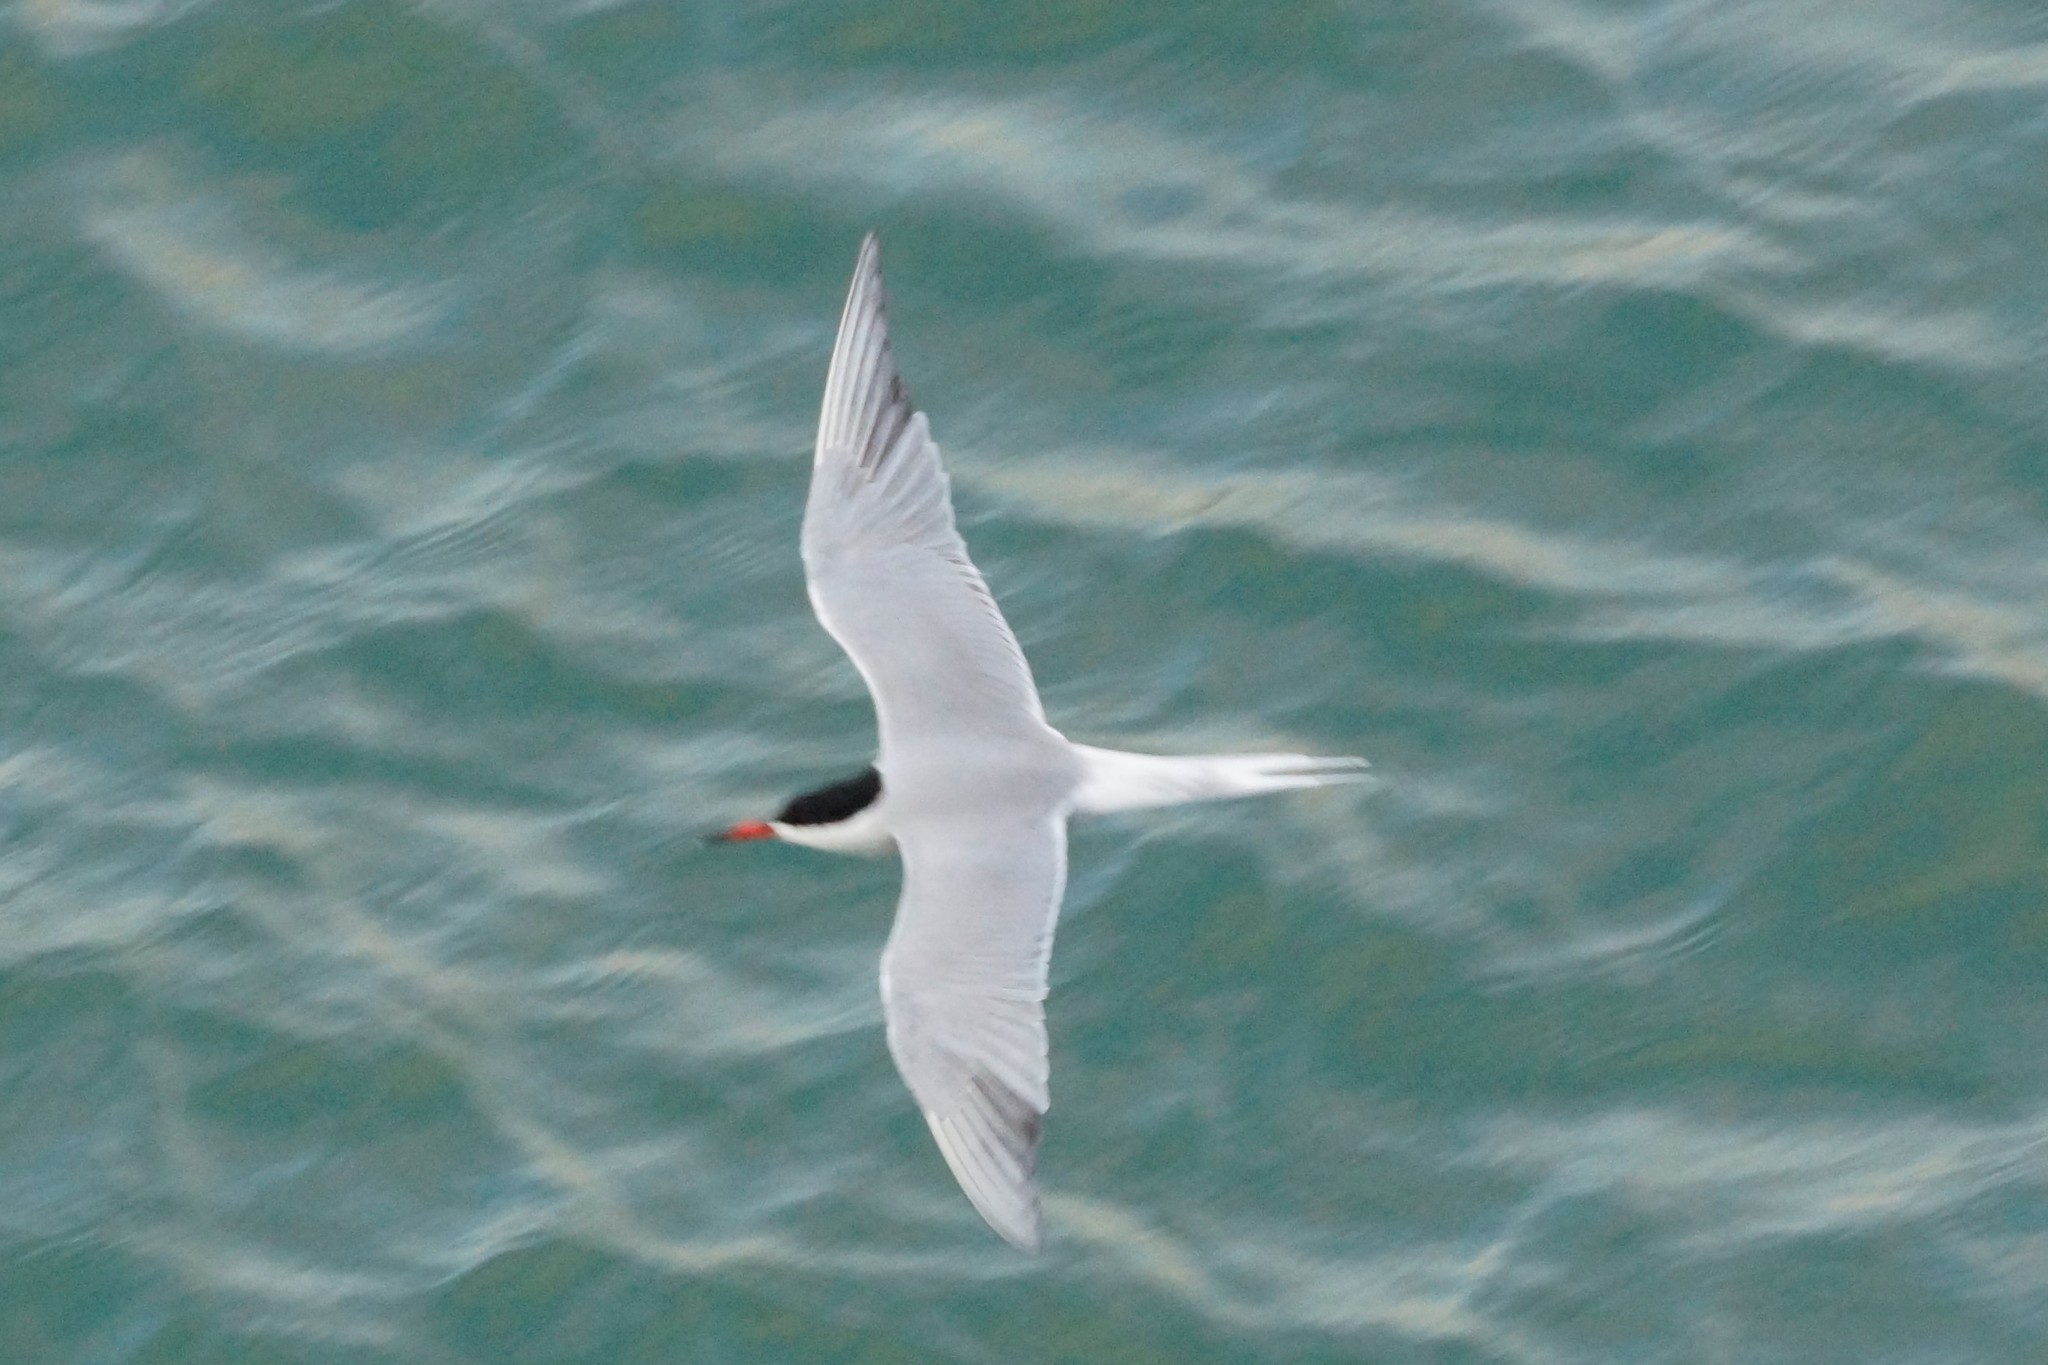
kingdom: Animalia
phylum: Chordata
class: Aves
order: Charadriiformes
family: Laridae
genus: Sterna
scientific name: Sterna hirundo
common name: Common tern
